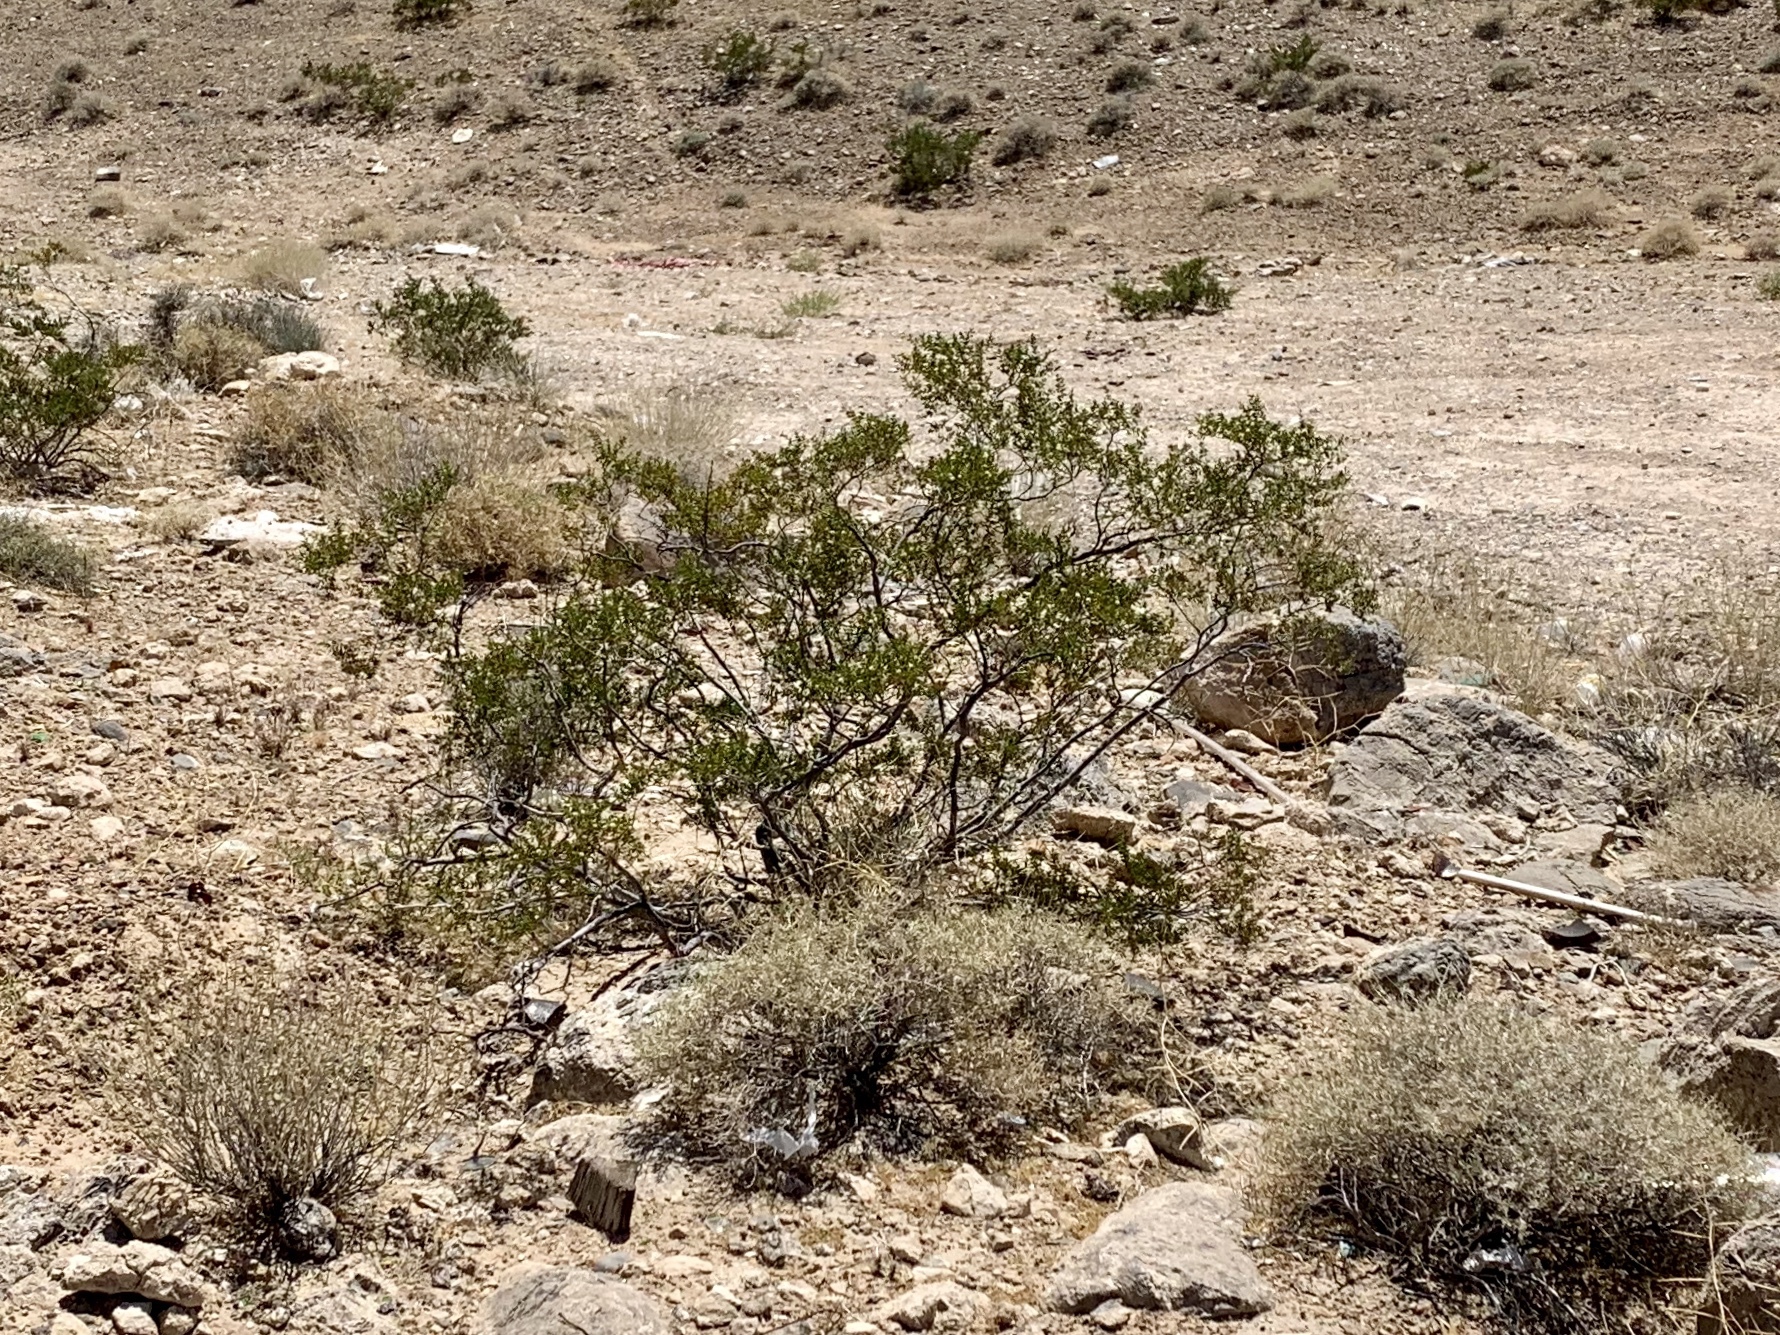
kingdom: Plantae
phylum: Tracheophyta
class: Magnoliopsida
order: Zygophyllales
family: Zygophyllaceae
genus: Larrea
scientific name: Larrea tridentata
